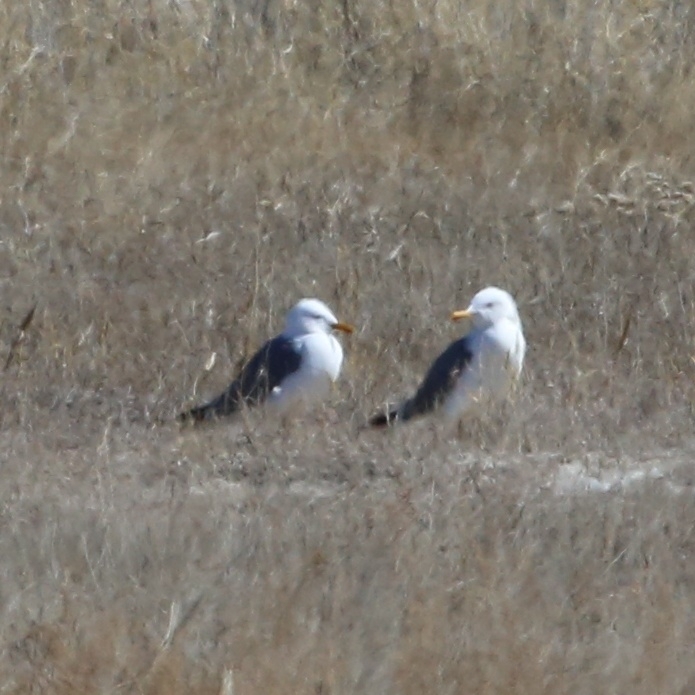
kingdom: Animalia
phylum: Chordata
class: Aves
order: Charadriiformes
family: Laridae
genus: Larus
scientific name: Larus fuscus
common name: Lesser black-backed gull
